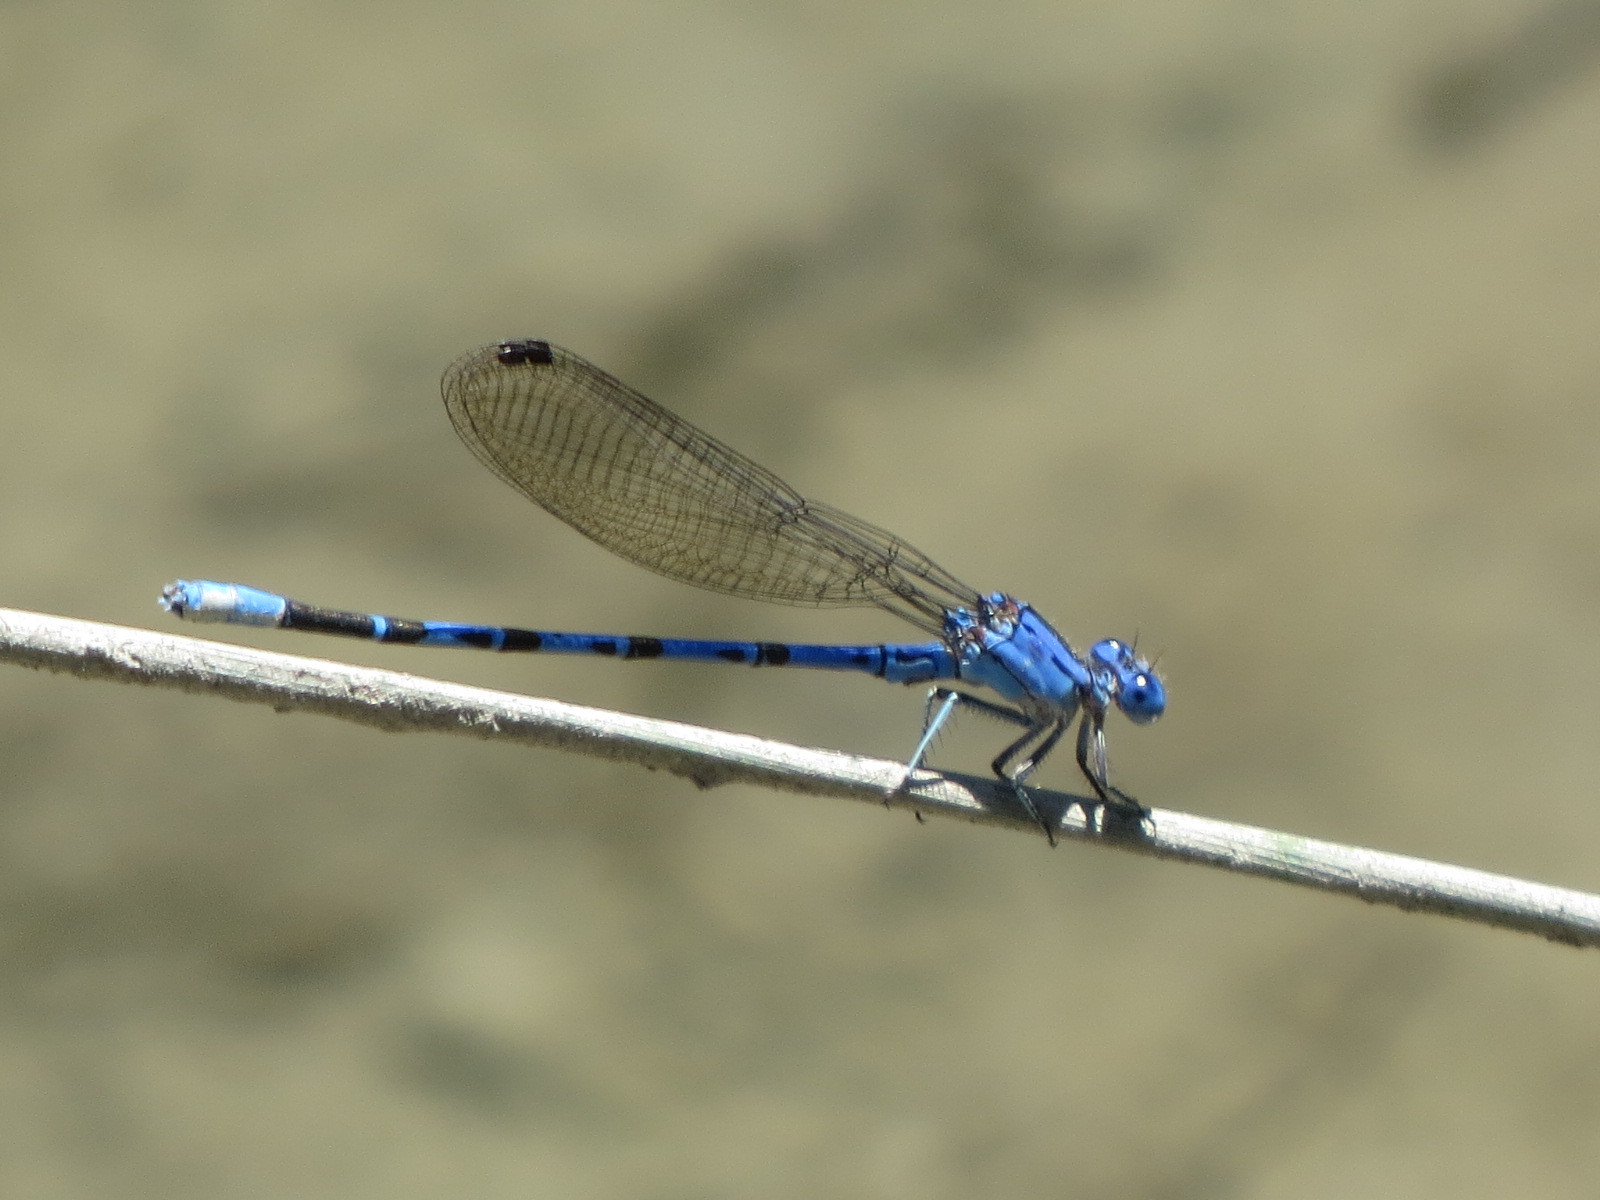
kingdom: Animalia
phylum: Arthropoda
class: Insecta
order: Odonata
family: Coenagrionidae
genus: Argia
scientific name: Argia vivida
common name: Vivid dancer
